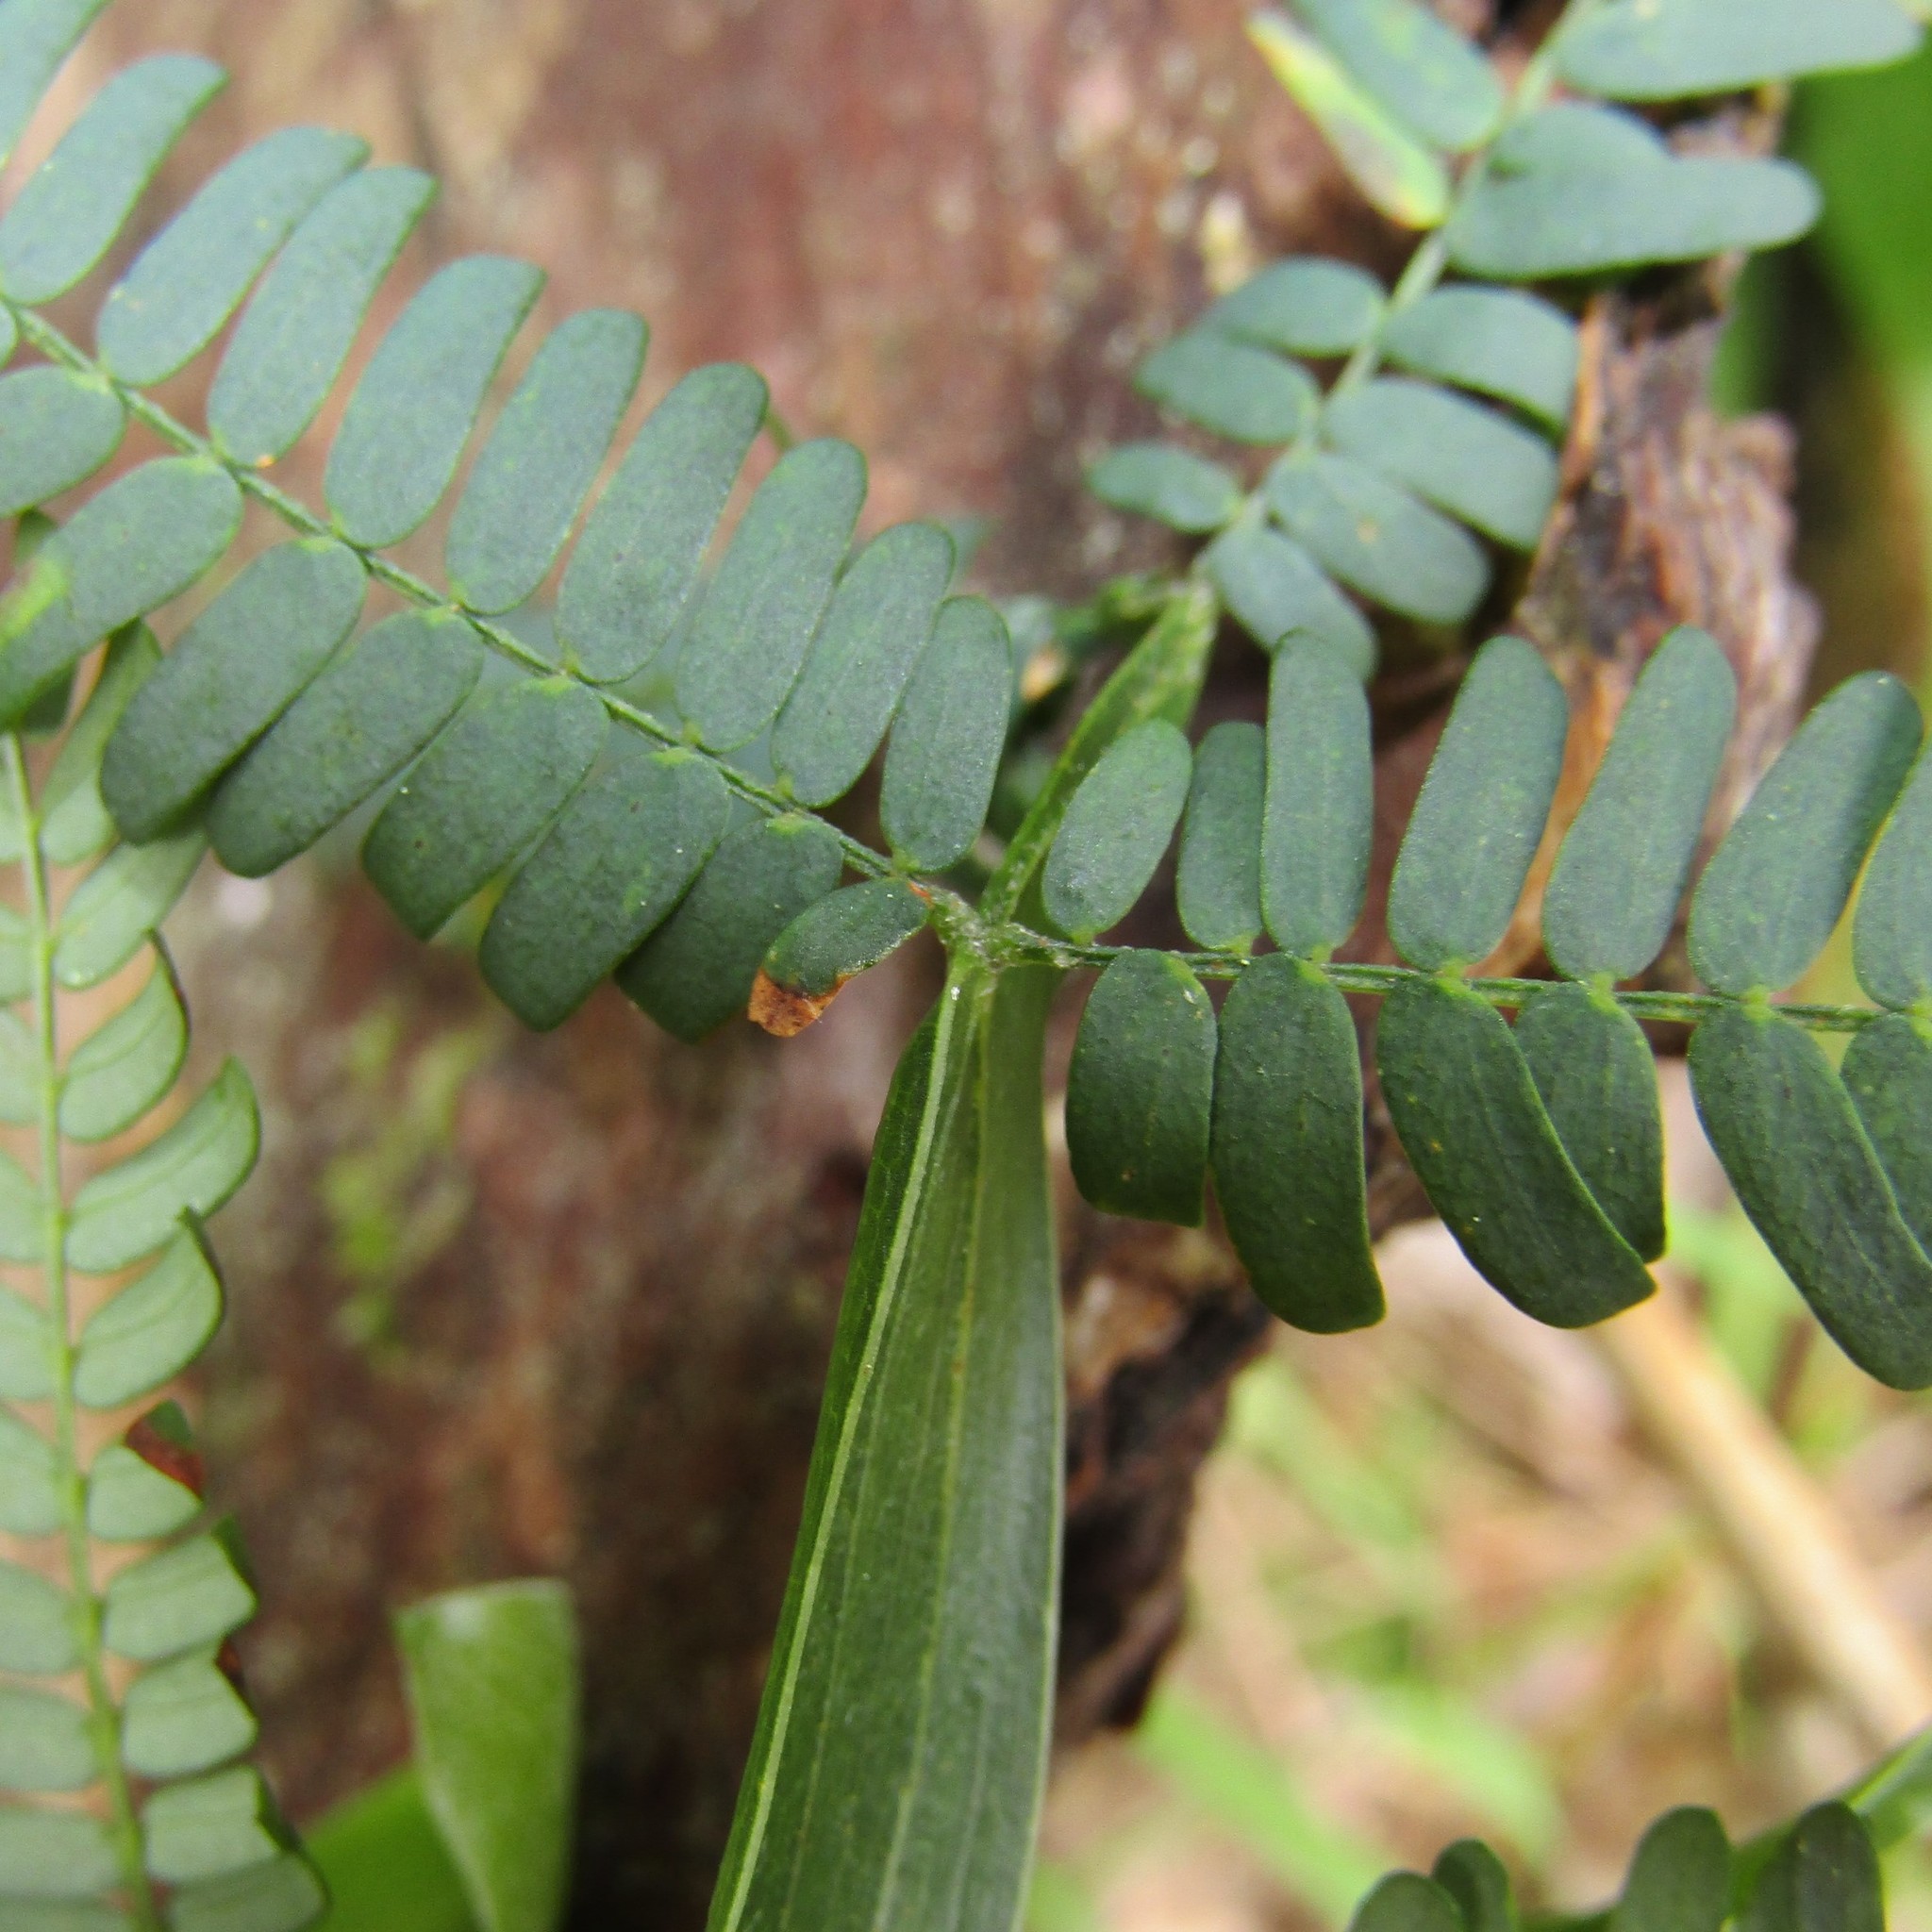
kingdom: Plantae
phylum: Tracheophyta
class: Magnoliopsida
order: Fabales
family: Fabaceae
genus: Acacia
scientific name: Acacia melanoxylon
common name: Blackwood
